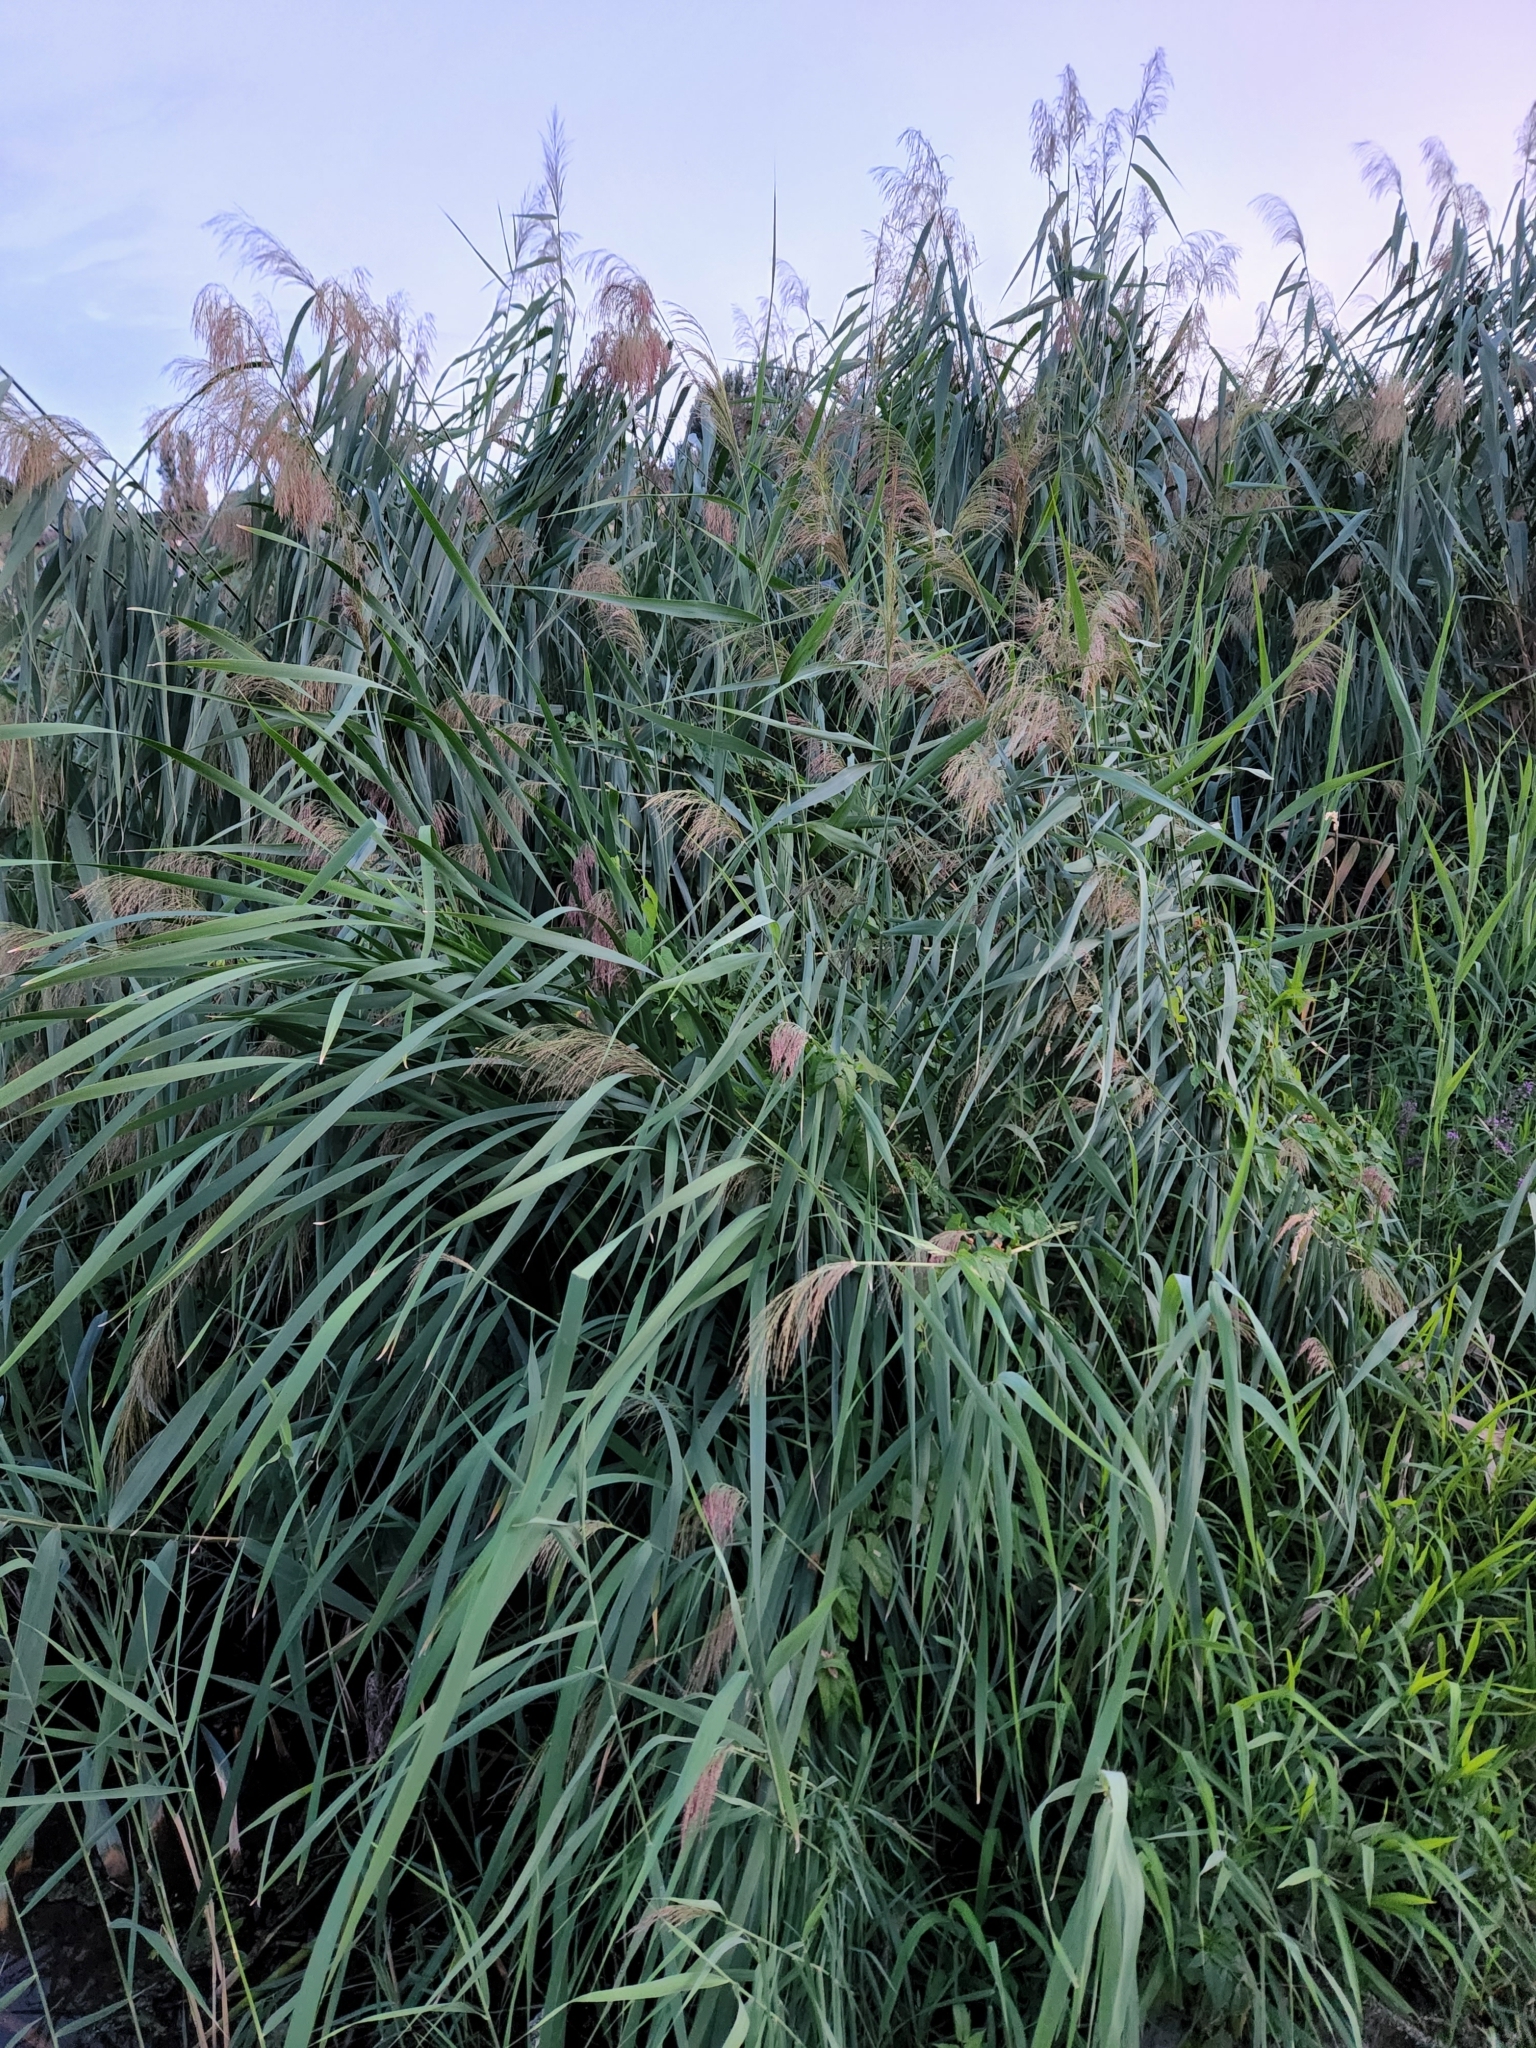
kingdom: Plantae
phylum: Tracheophyta
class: Liliopsida
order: Poales
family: Poaceae
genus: Phragmites
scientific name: Phragmites australis
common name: Common reed
